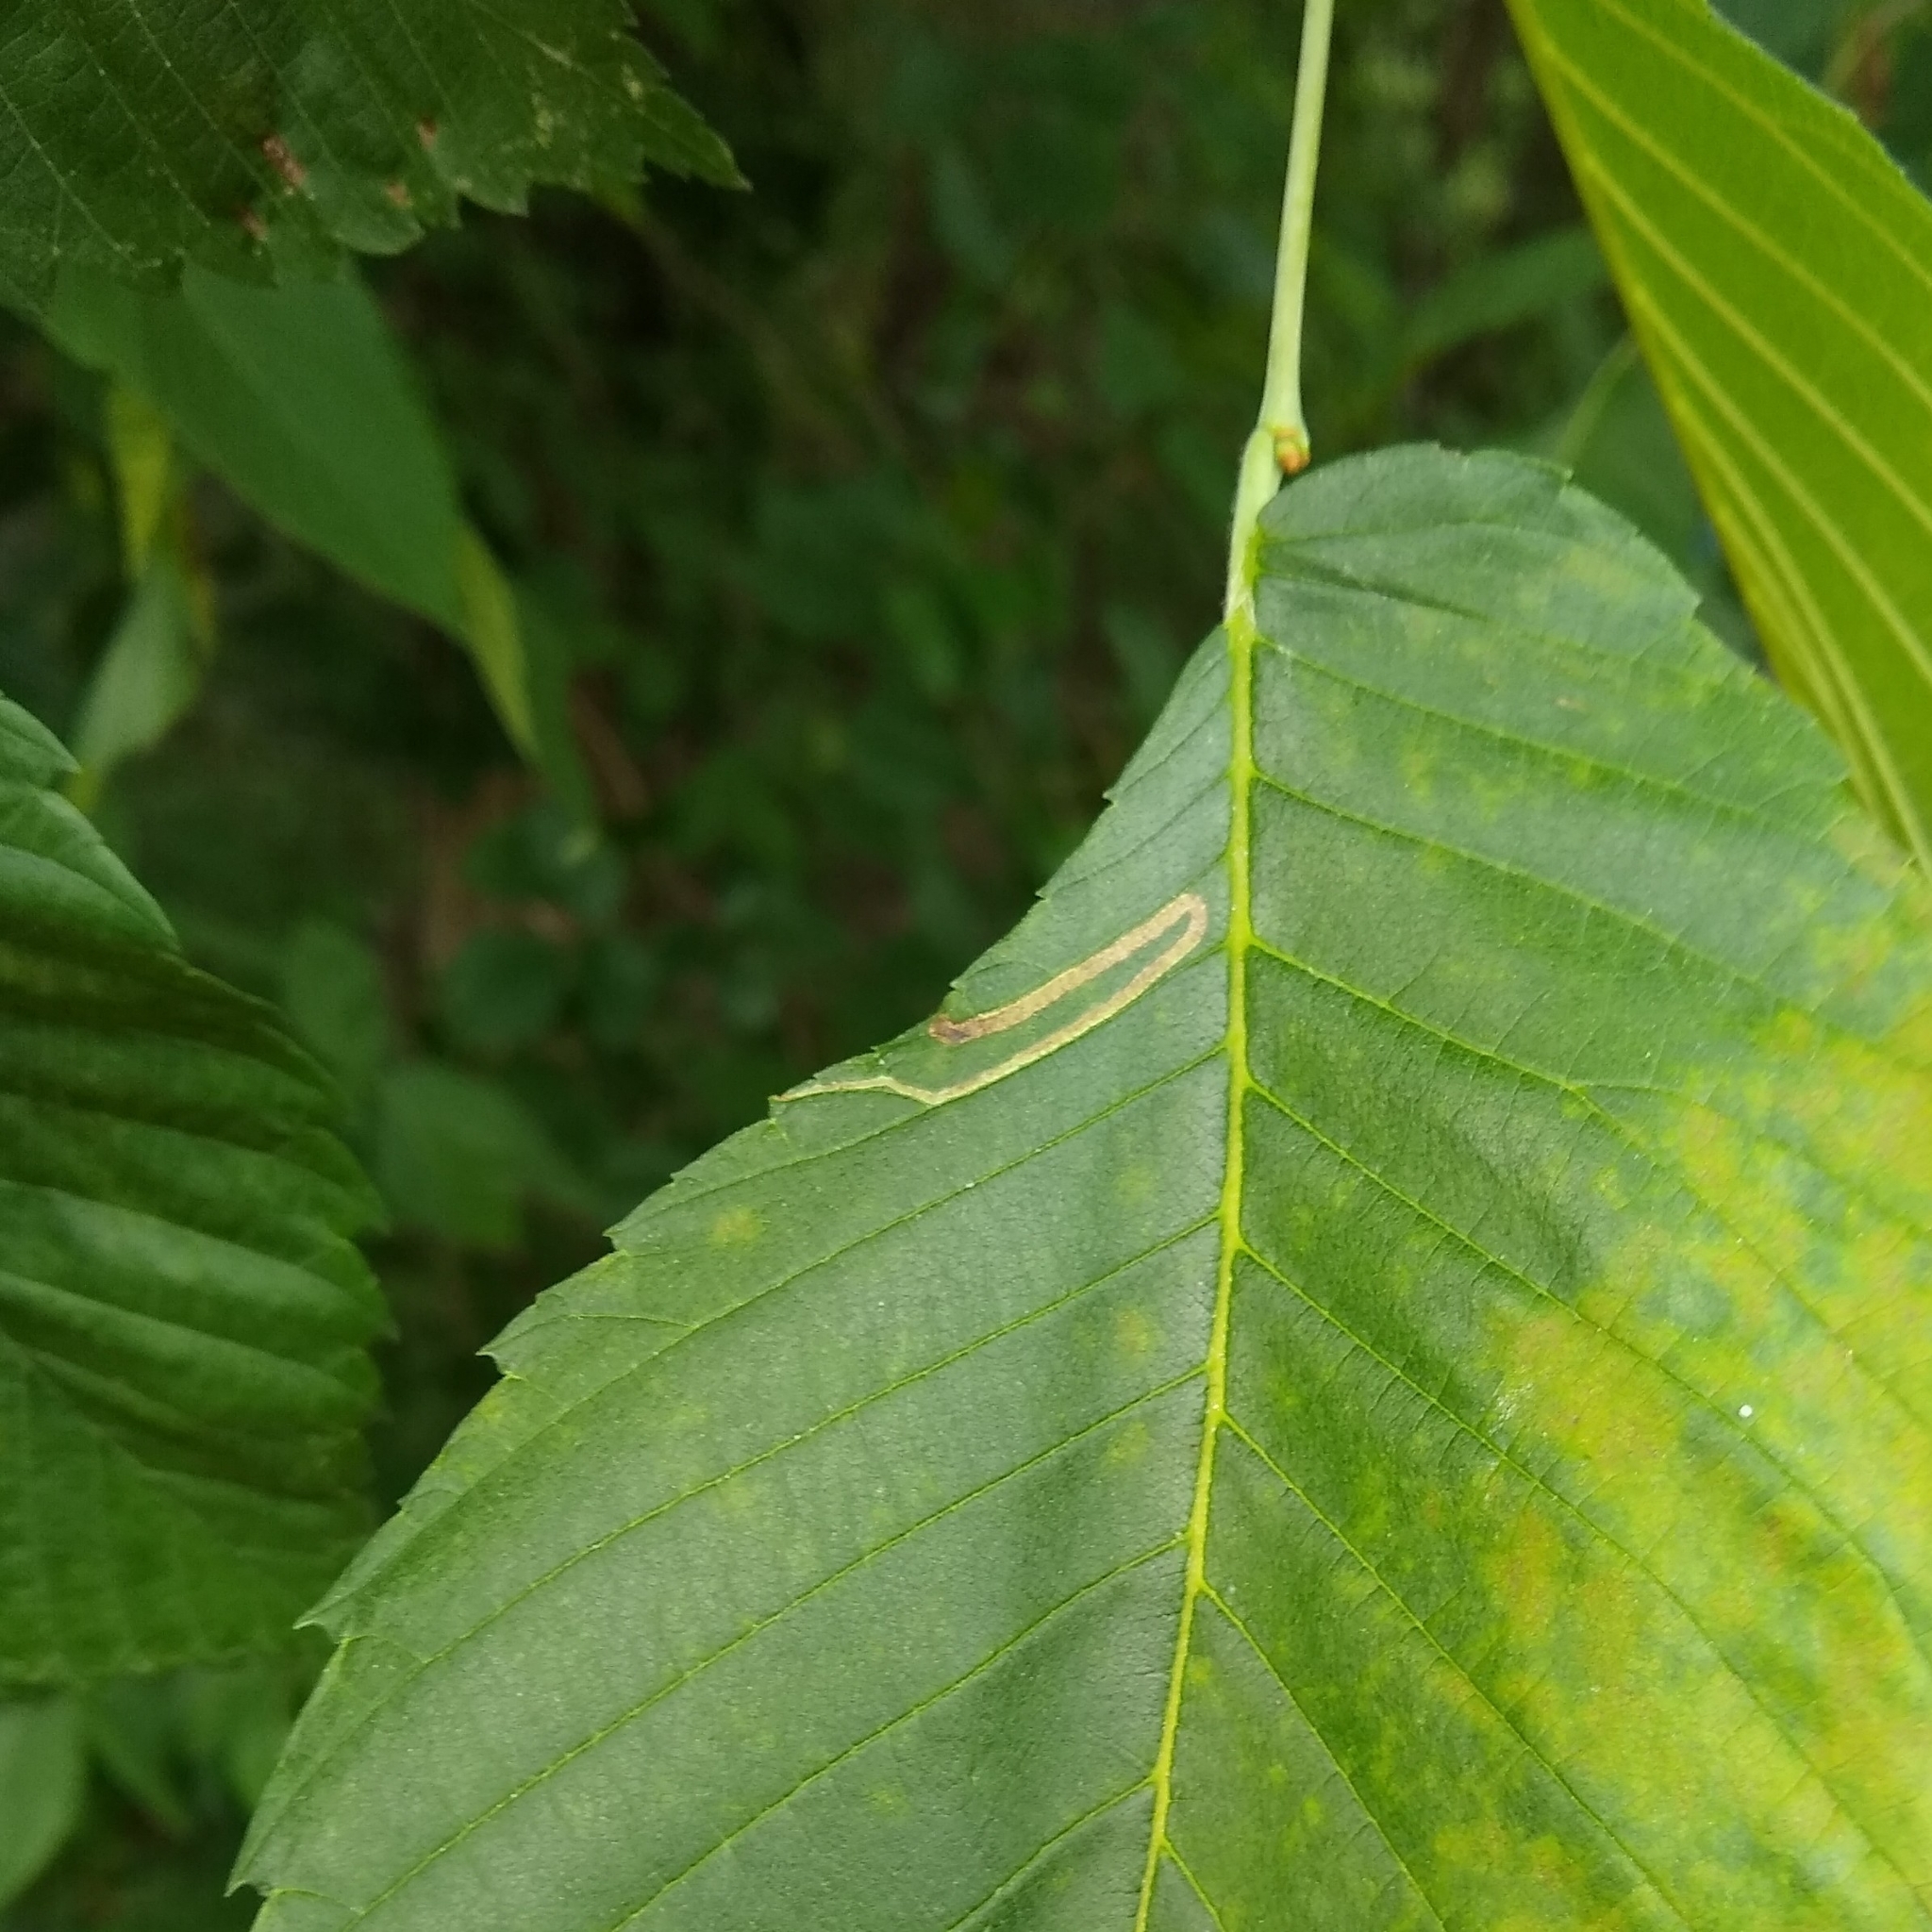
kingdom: Animalia
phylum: Arthropoda
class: Insecta
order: Diptera
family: Agromyzidae
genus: Agromyza
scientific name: Agromyza aristata
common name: Elm agromyzid leafminer
